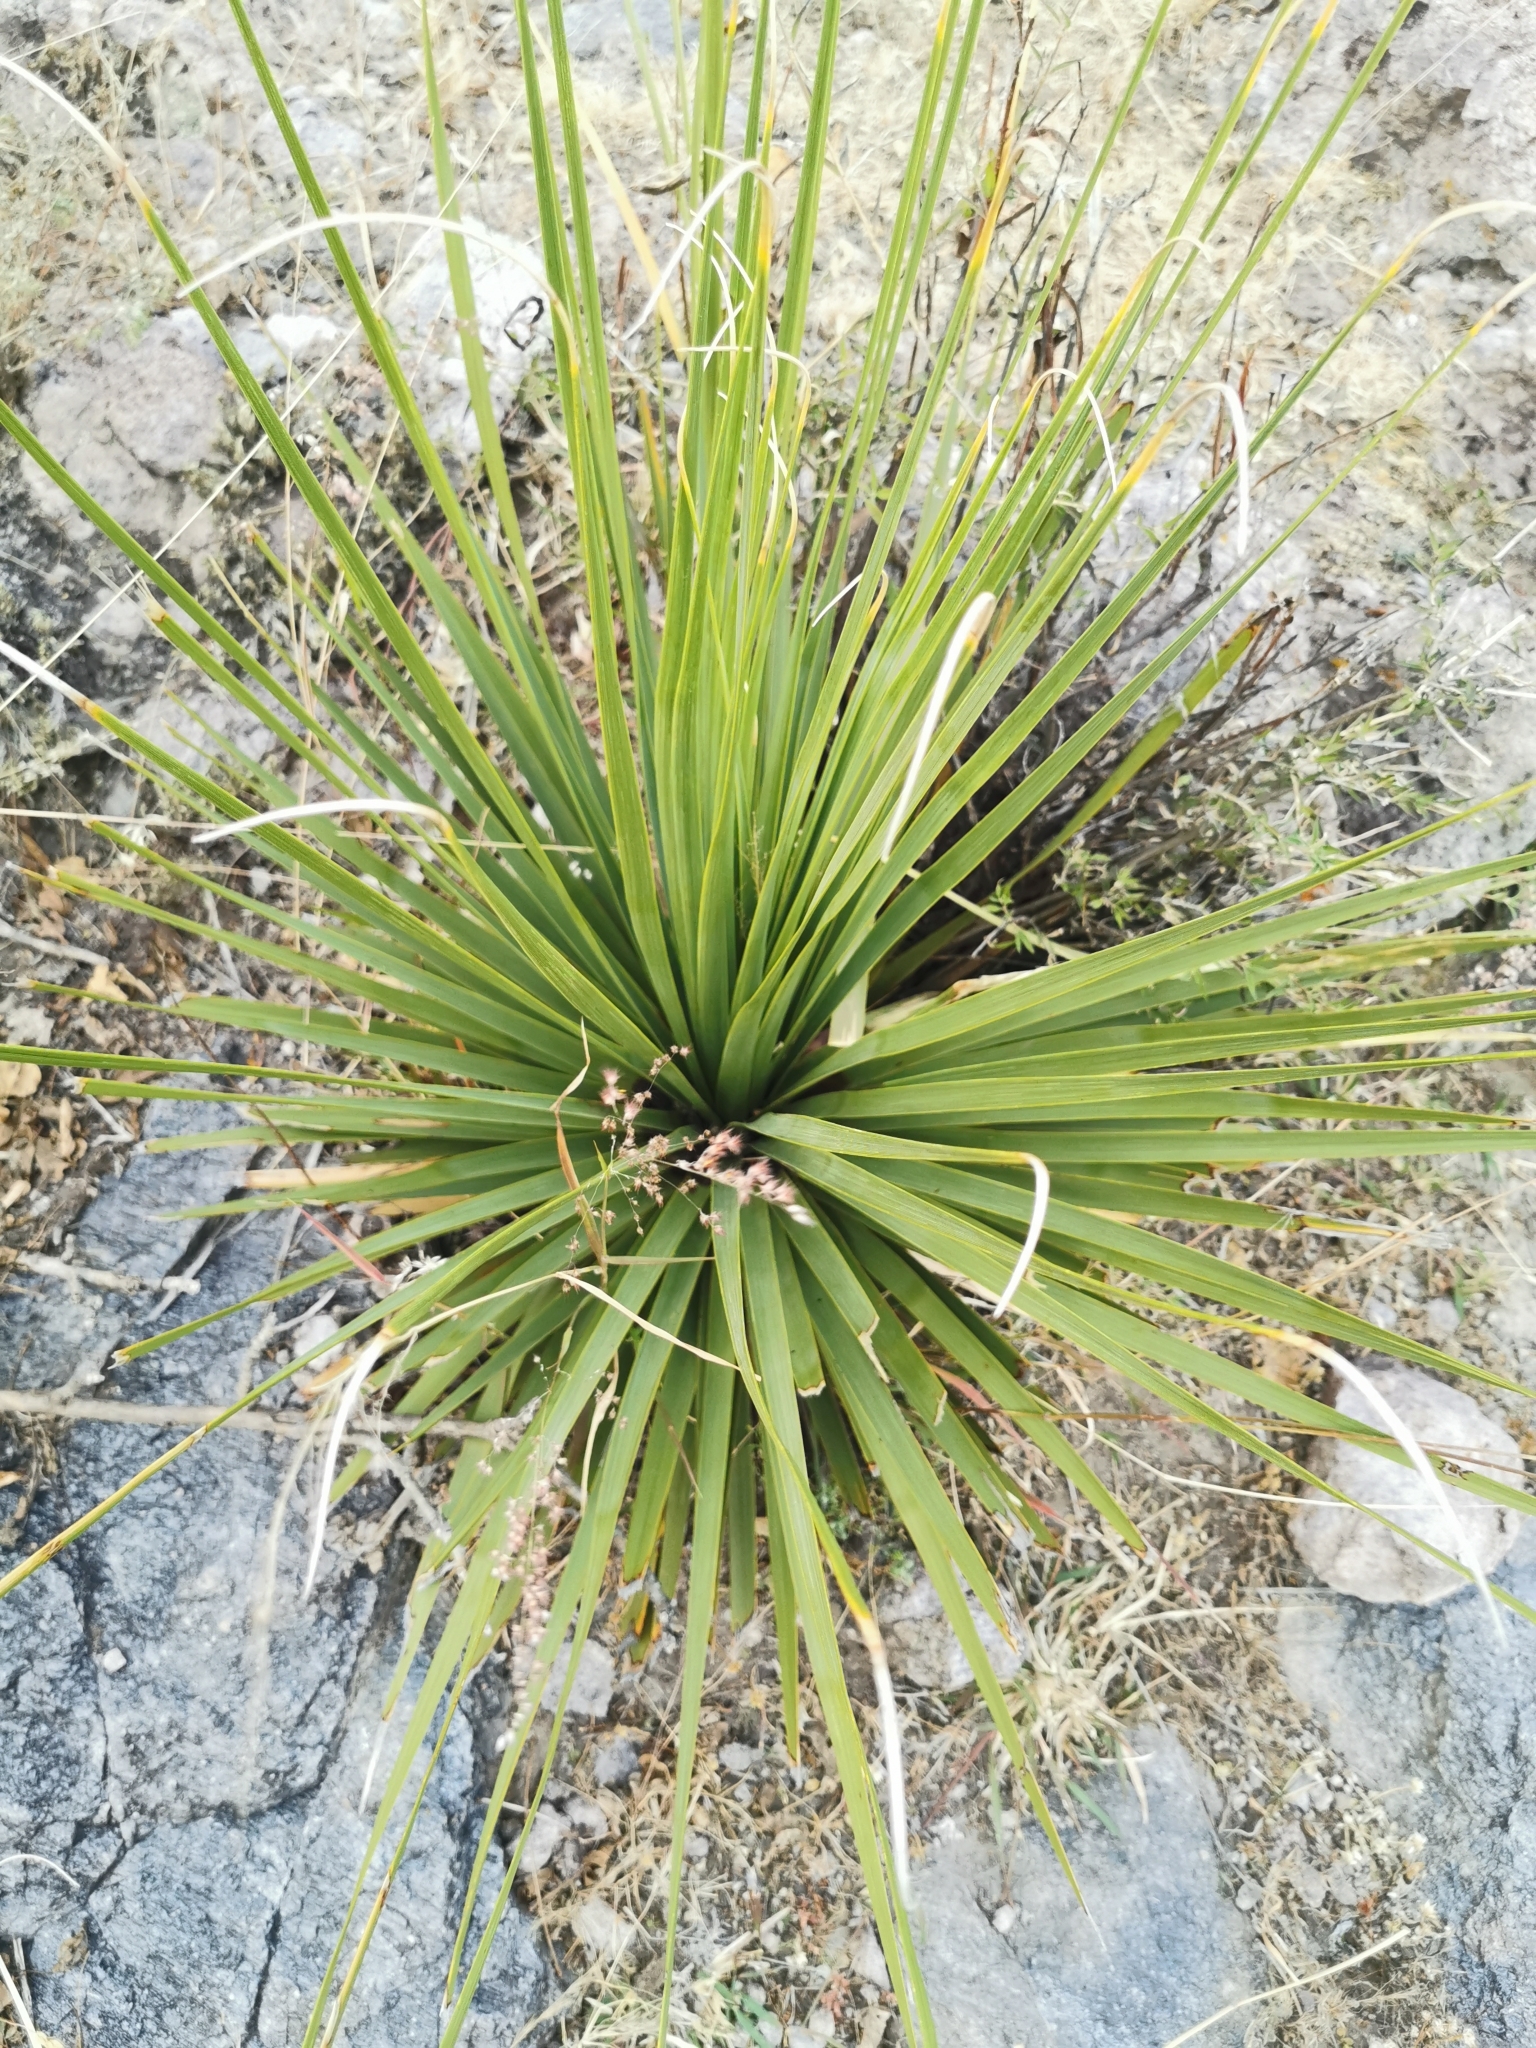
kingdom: Plantae
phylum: Tracheophyta
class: Liliopsida
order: Asparagales
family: Asparagaceae
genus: Nolina
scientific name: Nolina durangensis
